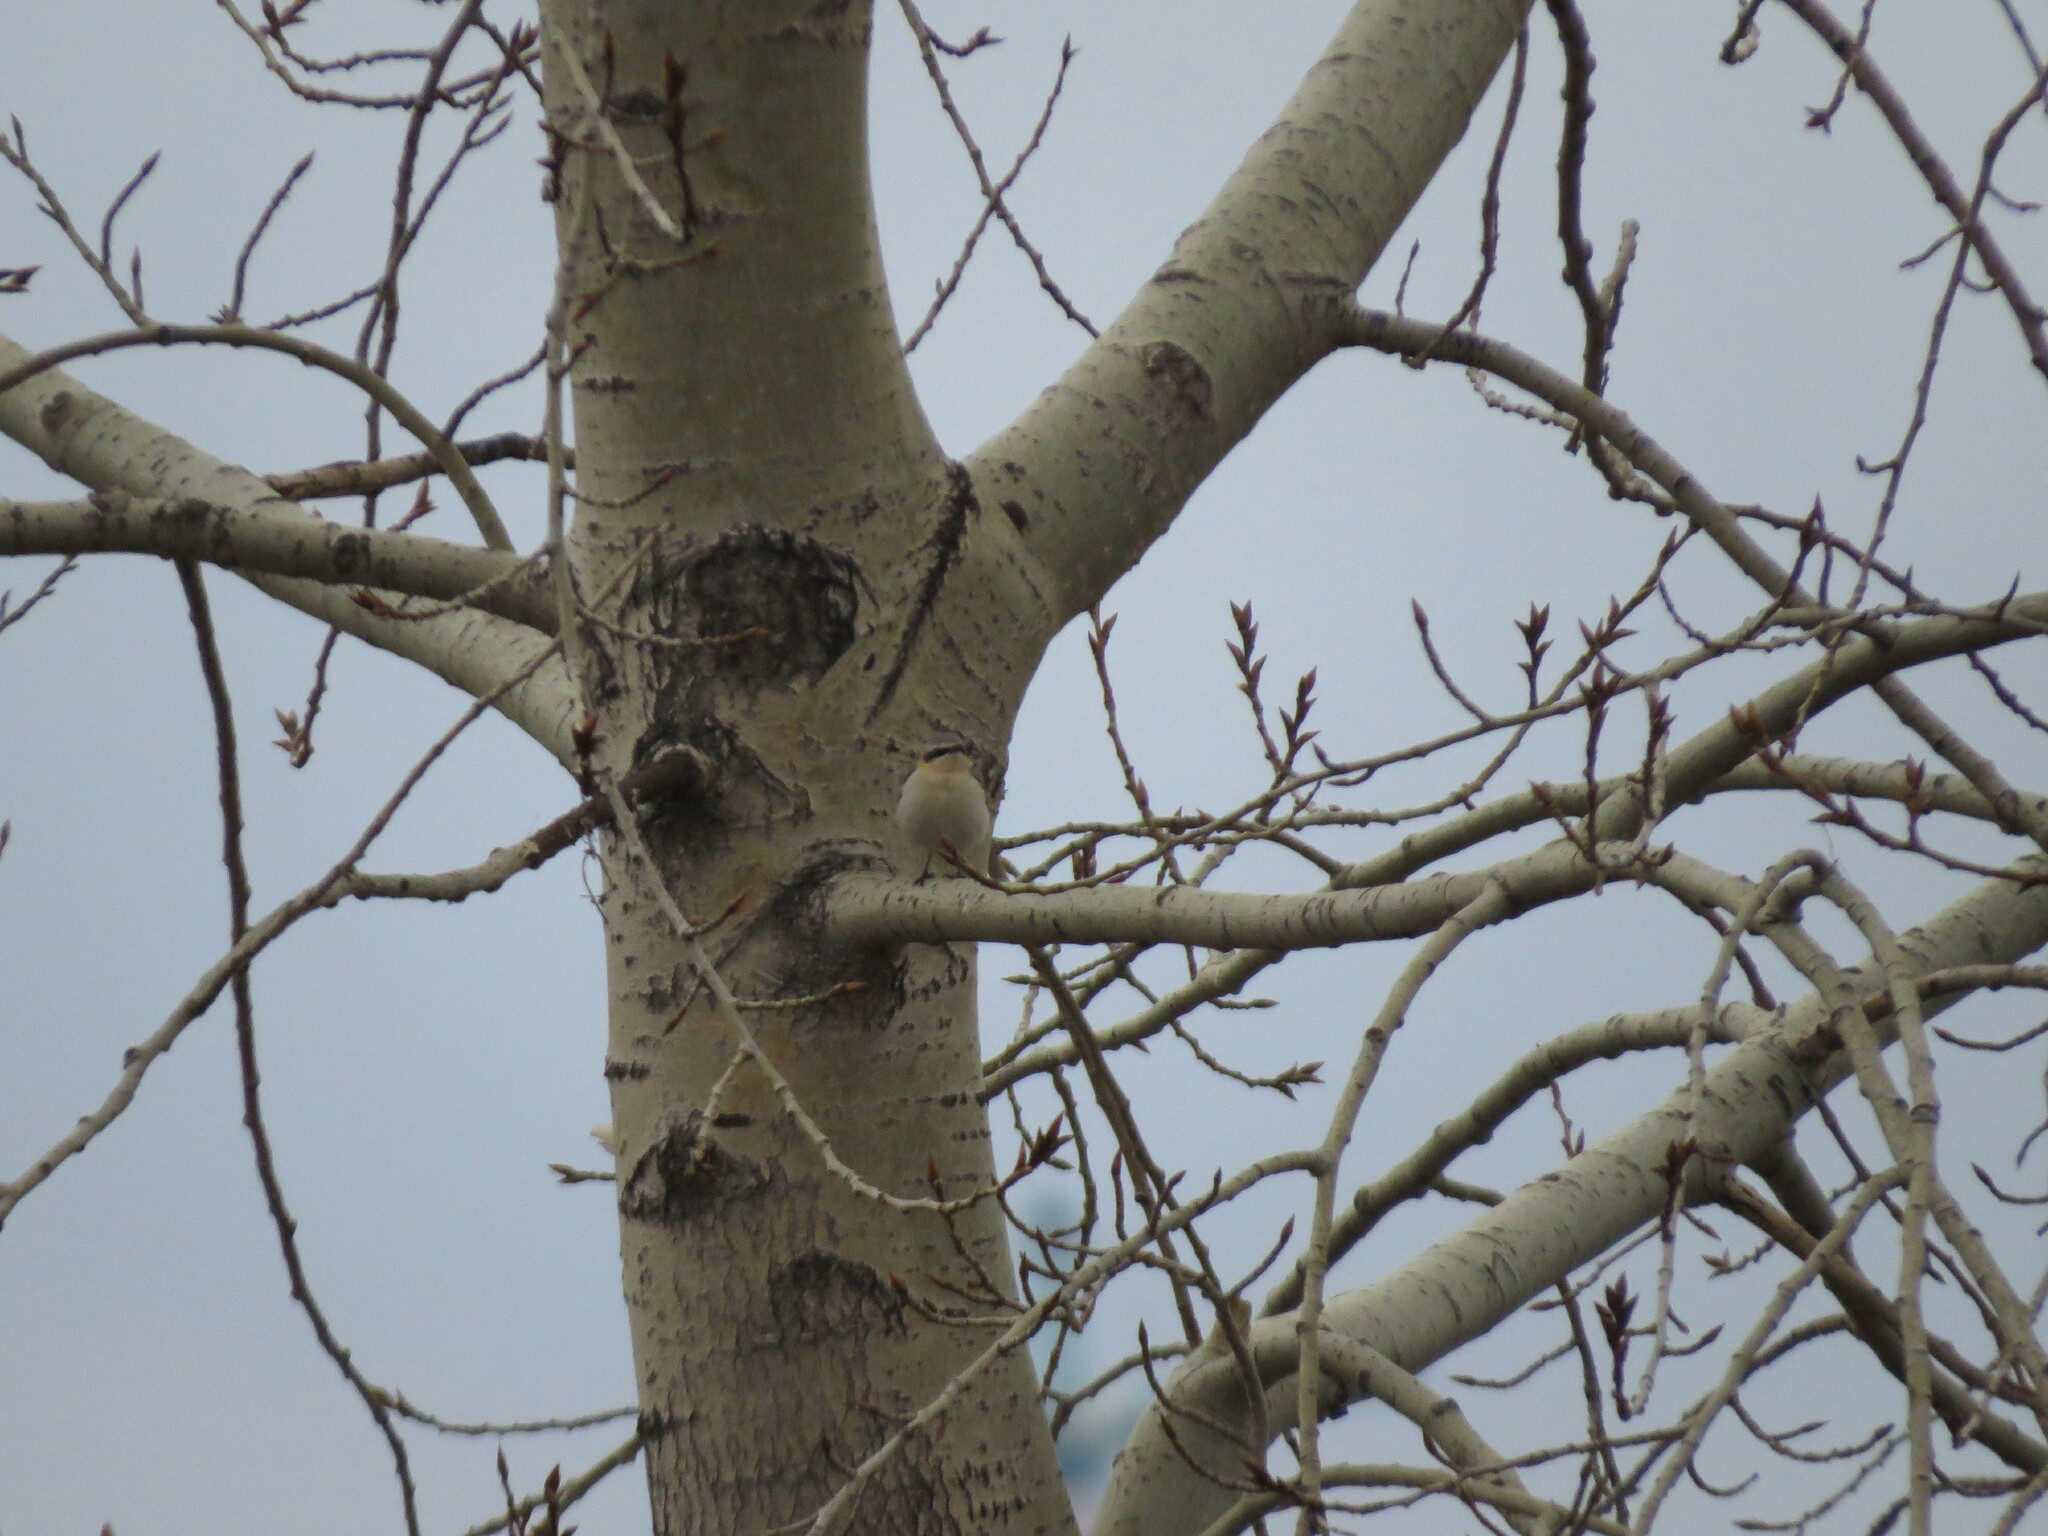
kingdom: Animalia
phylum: Chordata
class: Aves
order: Passeriformes
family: Muscicapidae
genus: Oenanthe
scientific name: Oenanthe oenanthe
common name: Northern wheatear
